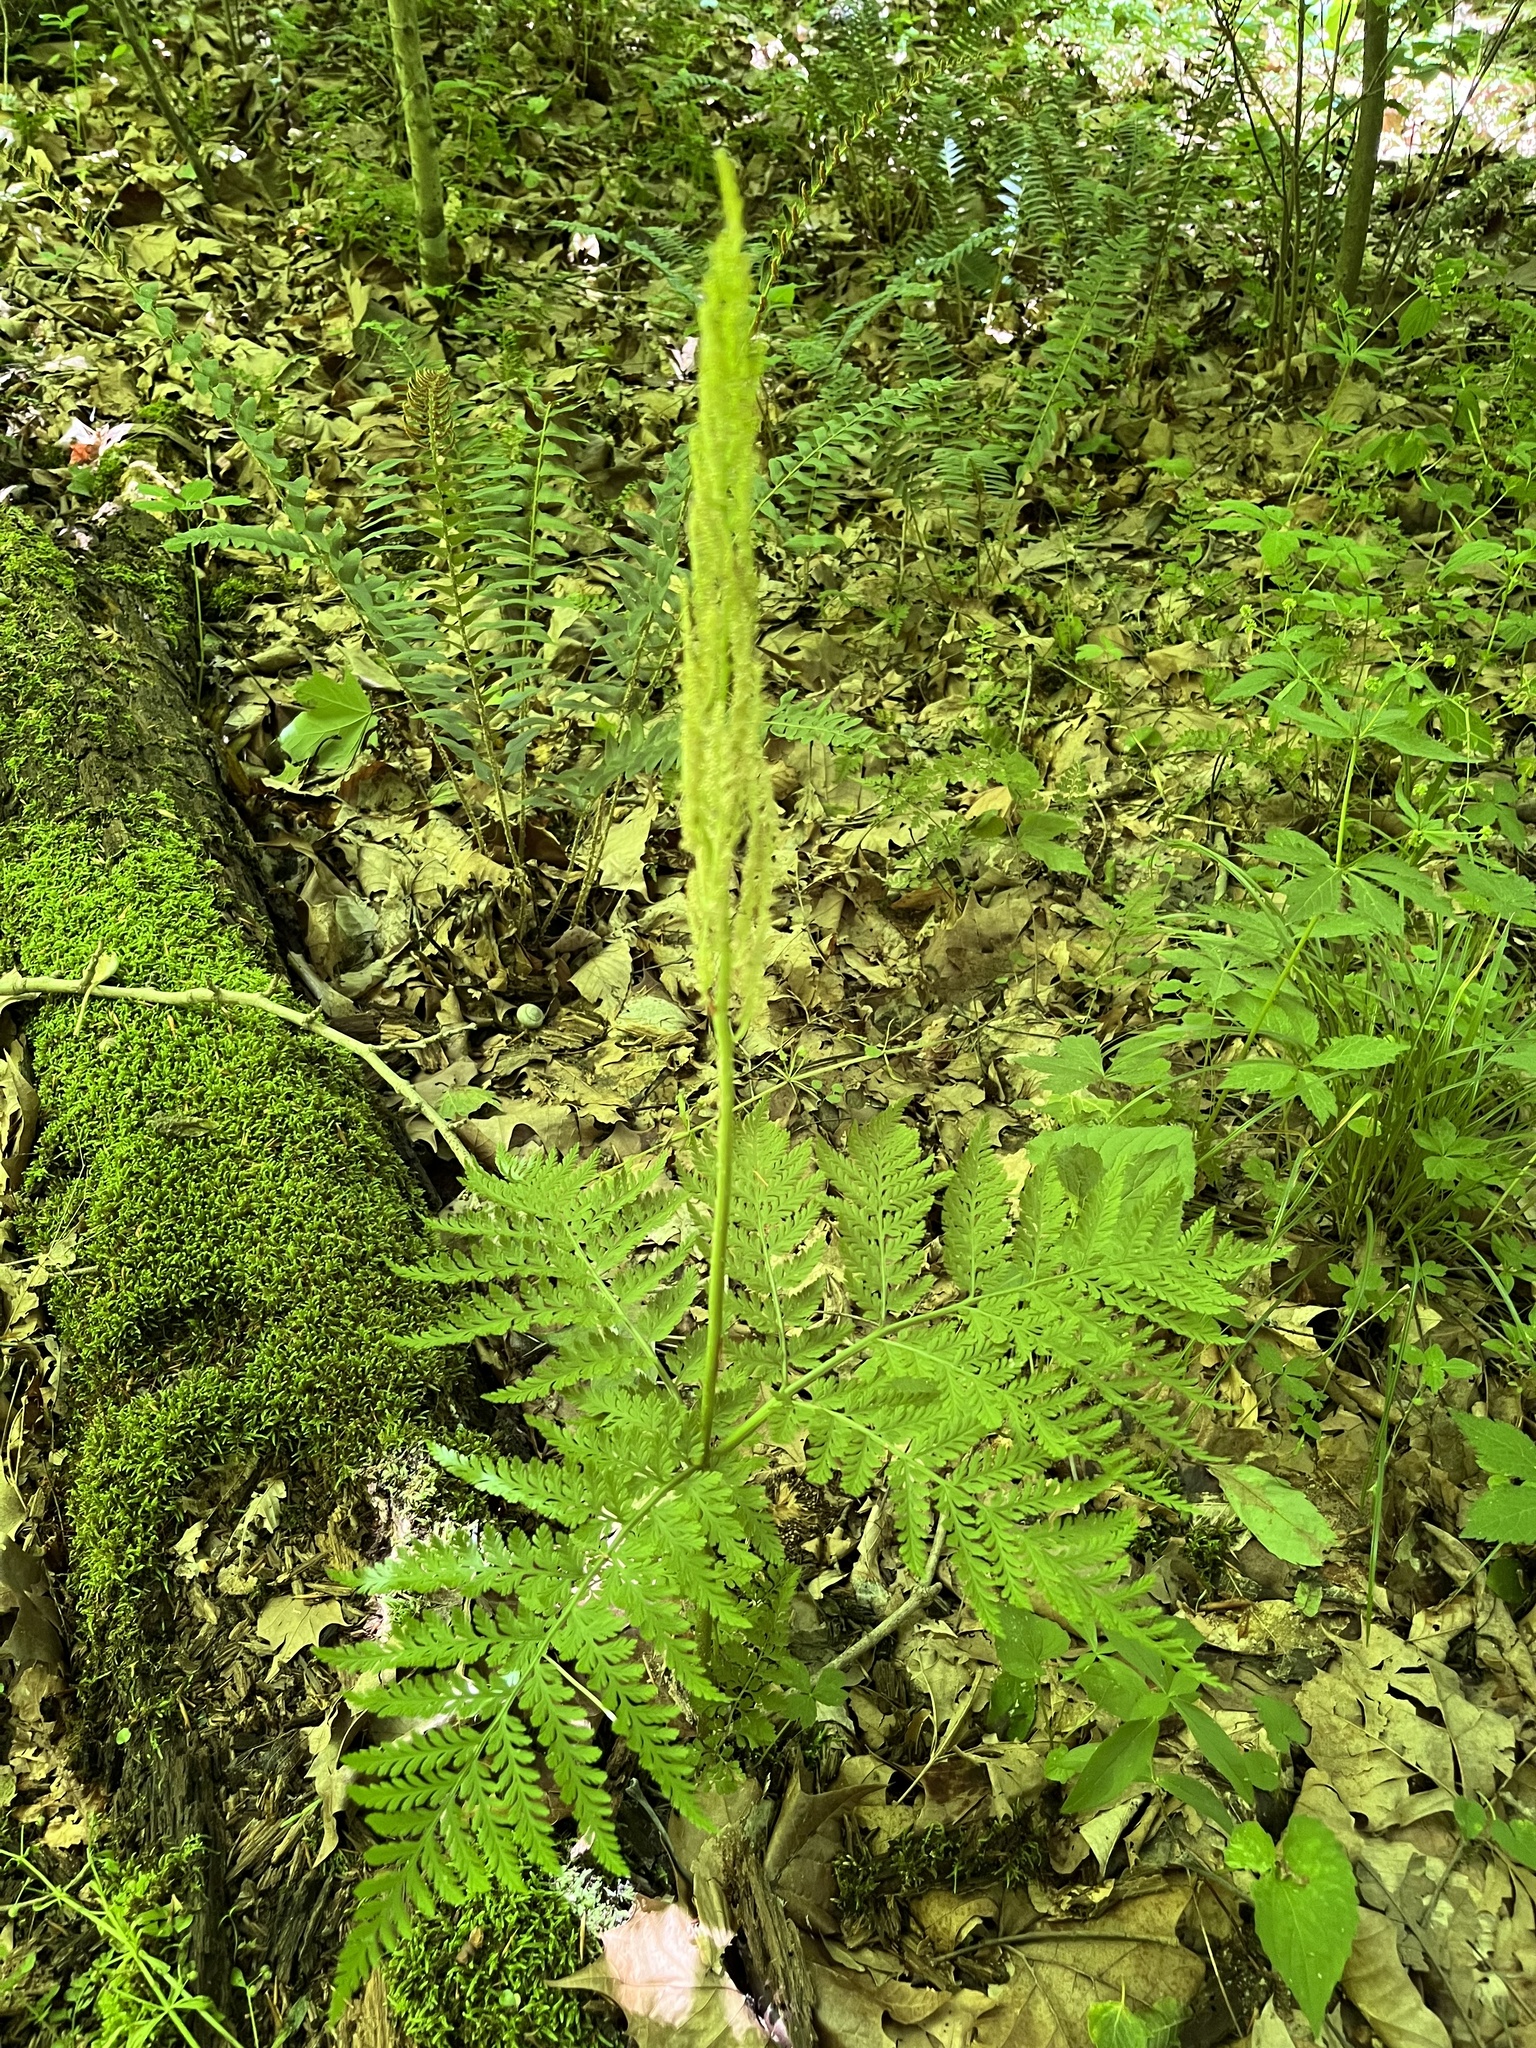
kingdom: Plantae
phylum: Tracheophyta
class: Polypodiopsida
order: Ophioglossales
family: Ophioglossaceae
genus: Botrypus
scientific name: Botrypus virginianus
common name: Common grapefern
